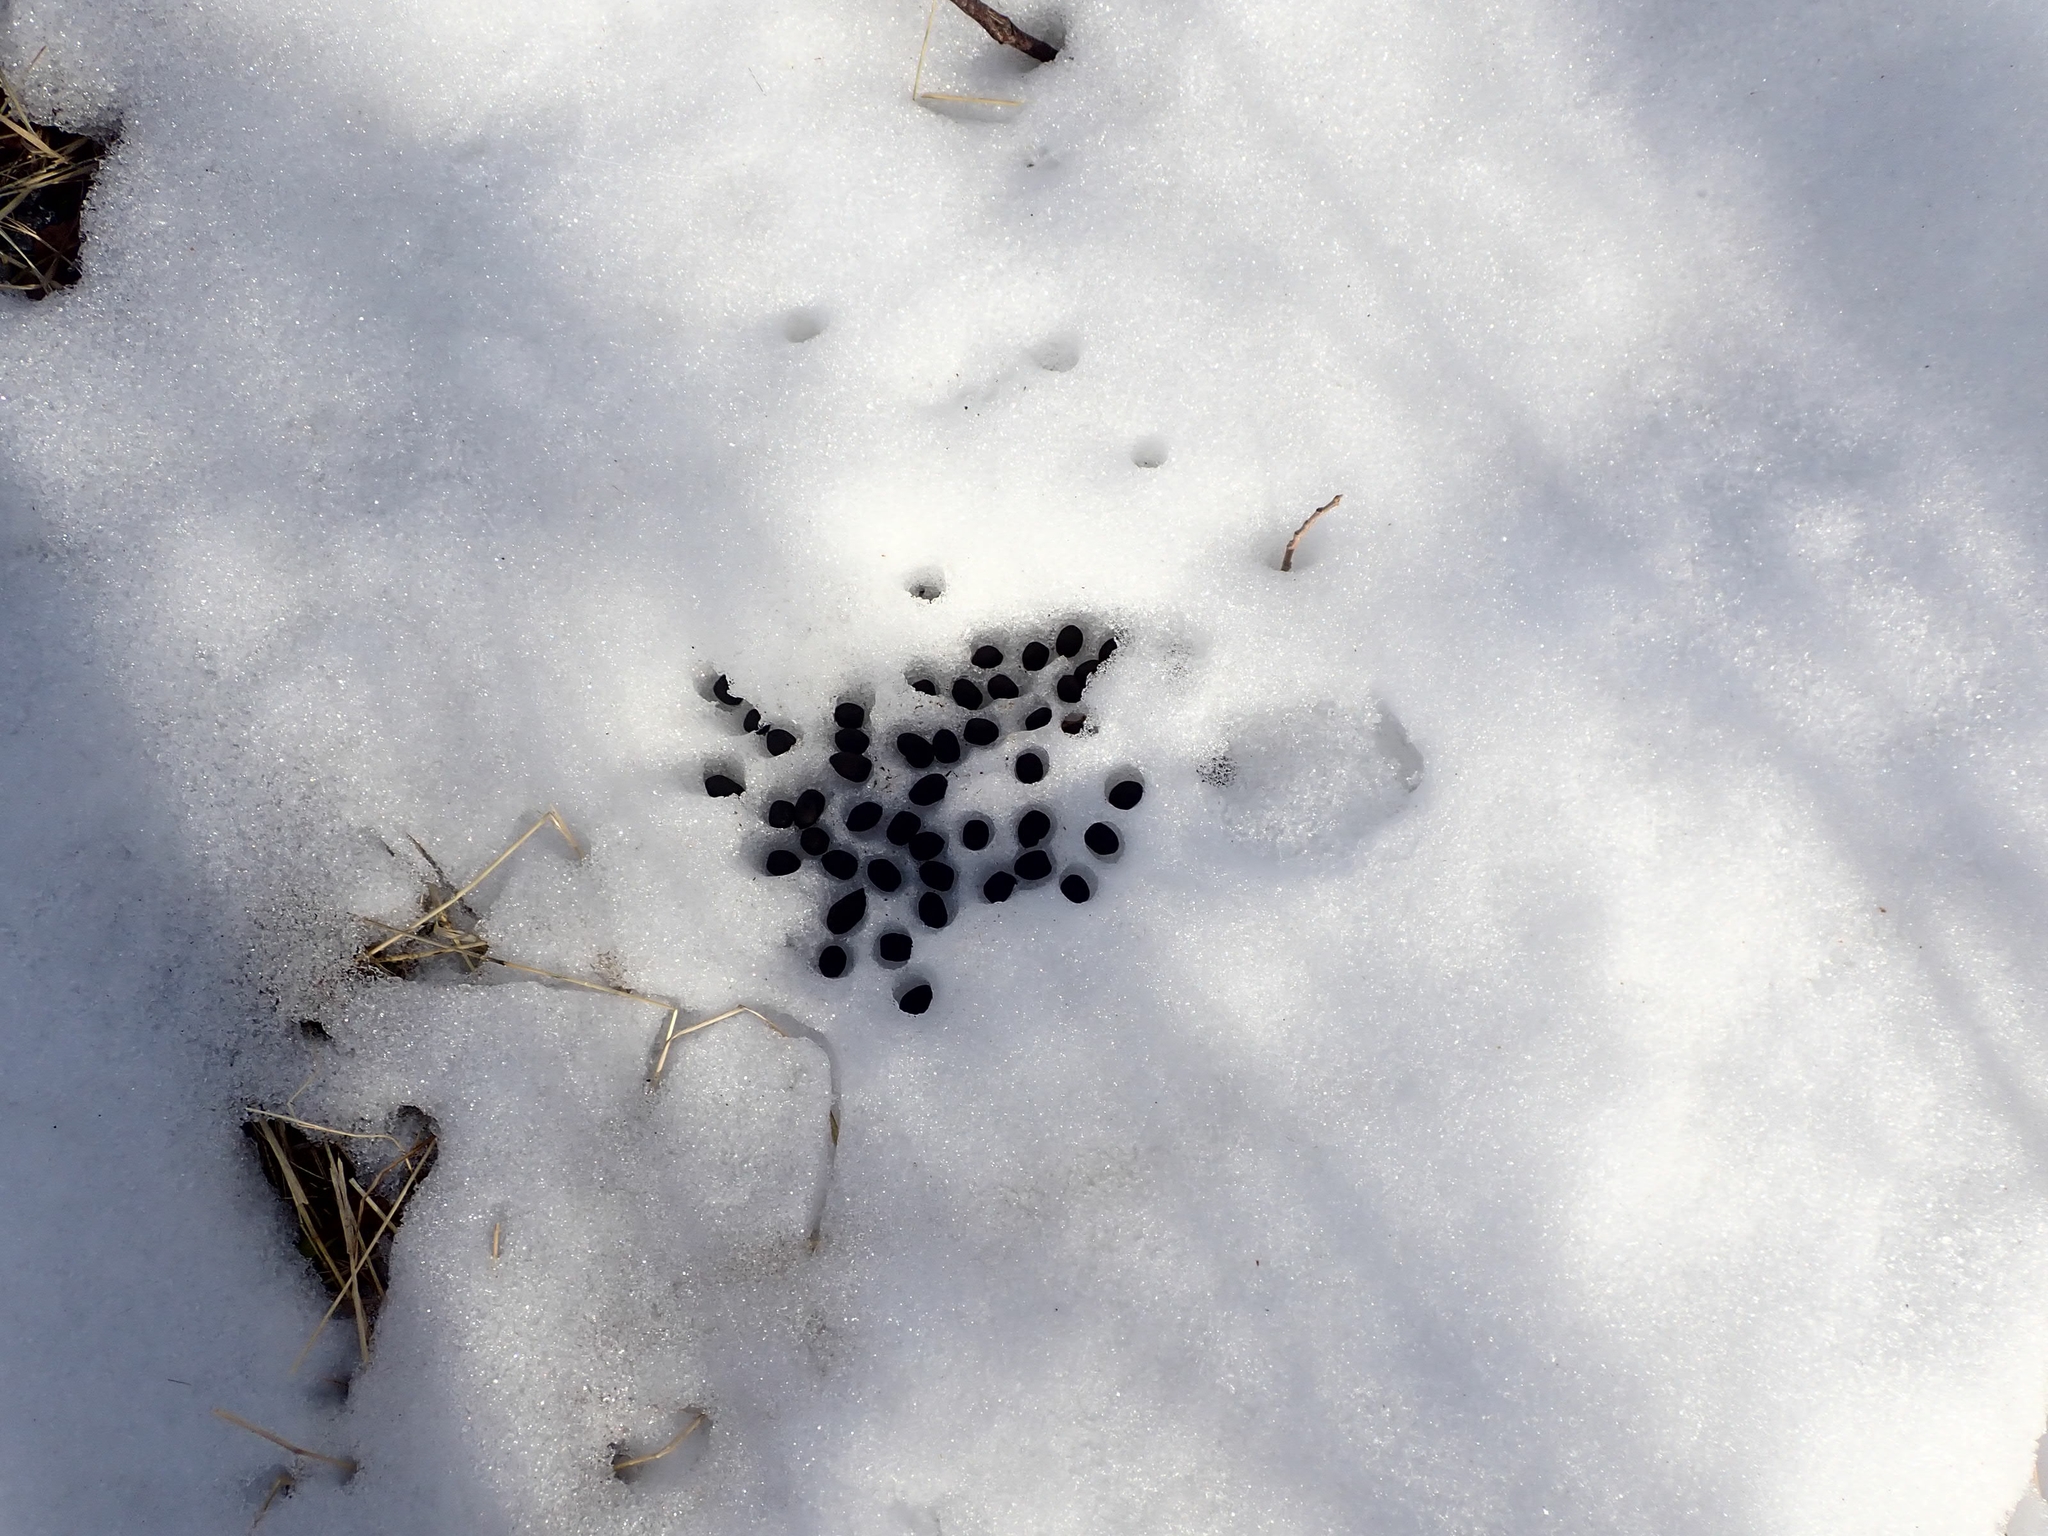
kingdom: Animalia
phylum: Chordata
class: Mammalia
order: Artiodactyla
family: Cervidae
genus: Odocoileus
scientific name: Odocoileus virginianus
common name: White-tailed deer
